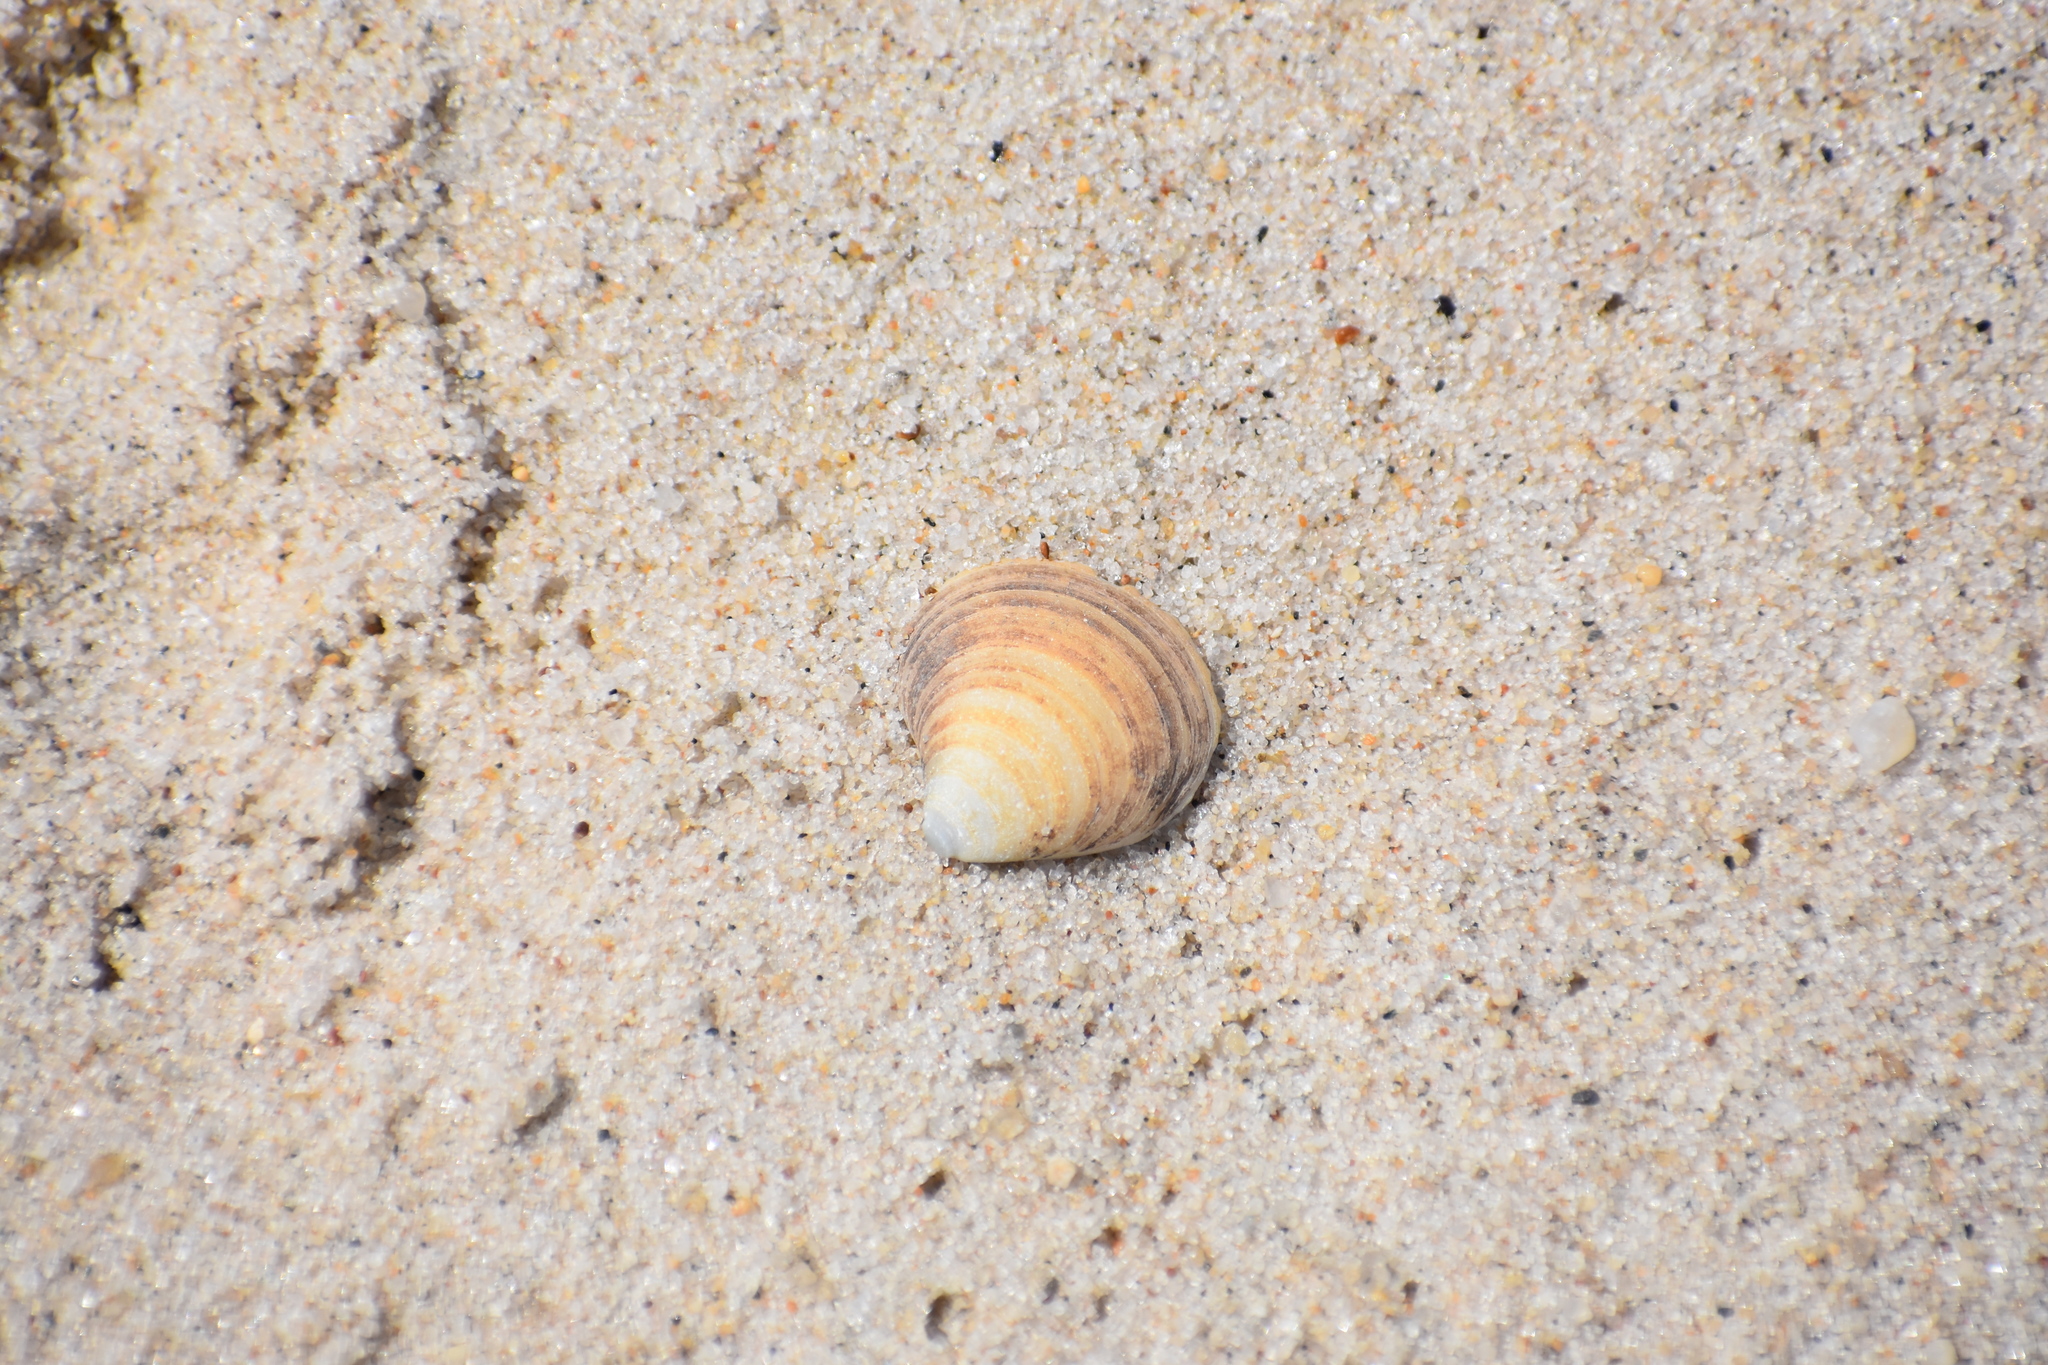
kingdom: Animalia
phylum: Mollusca
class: Bivalvia
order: Cardiida
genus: Isocrassina
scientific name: Isocrassina
